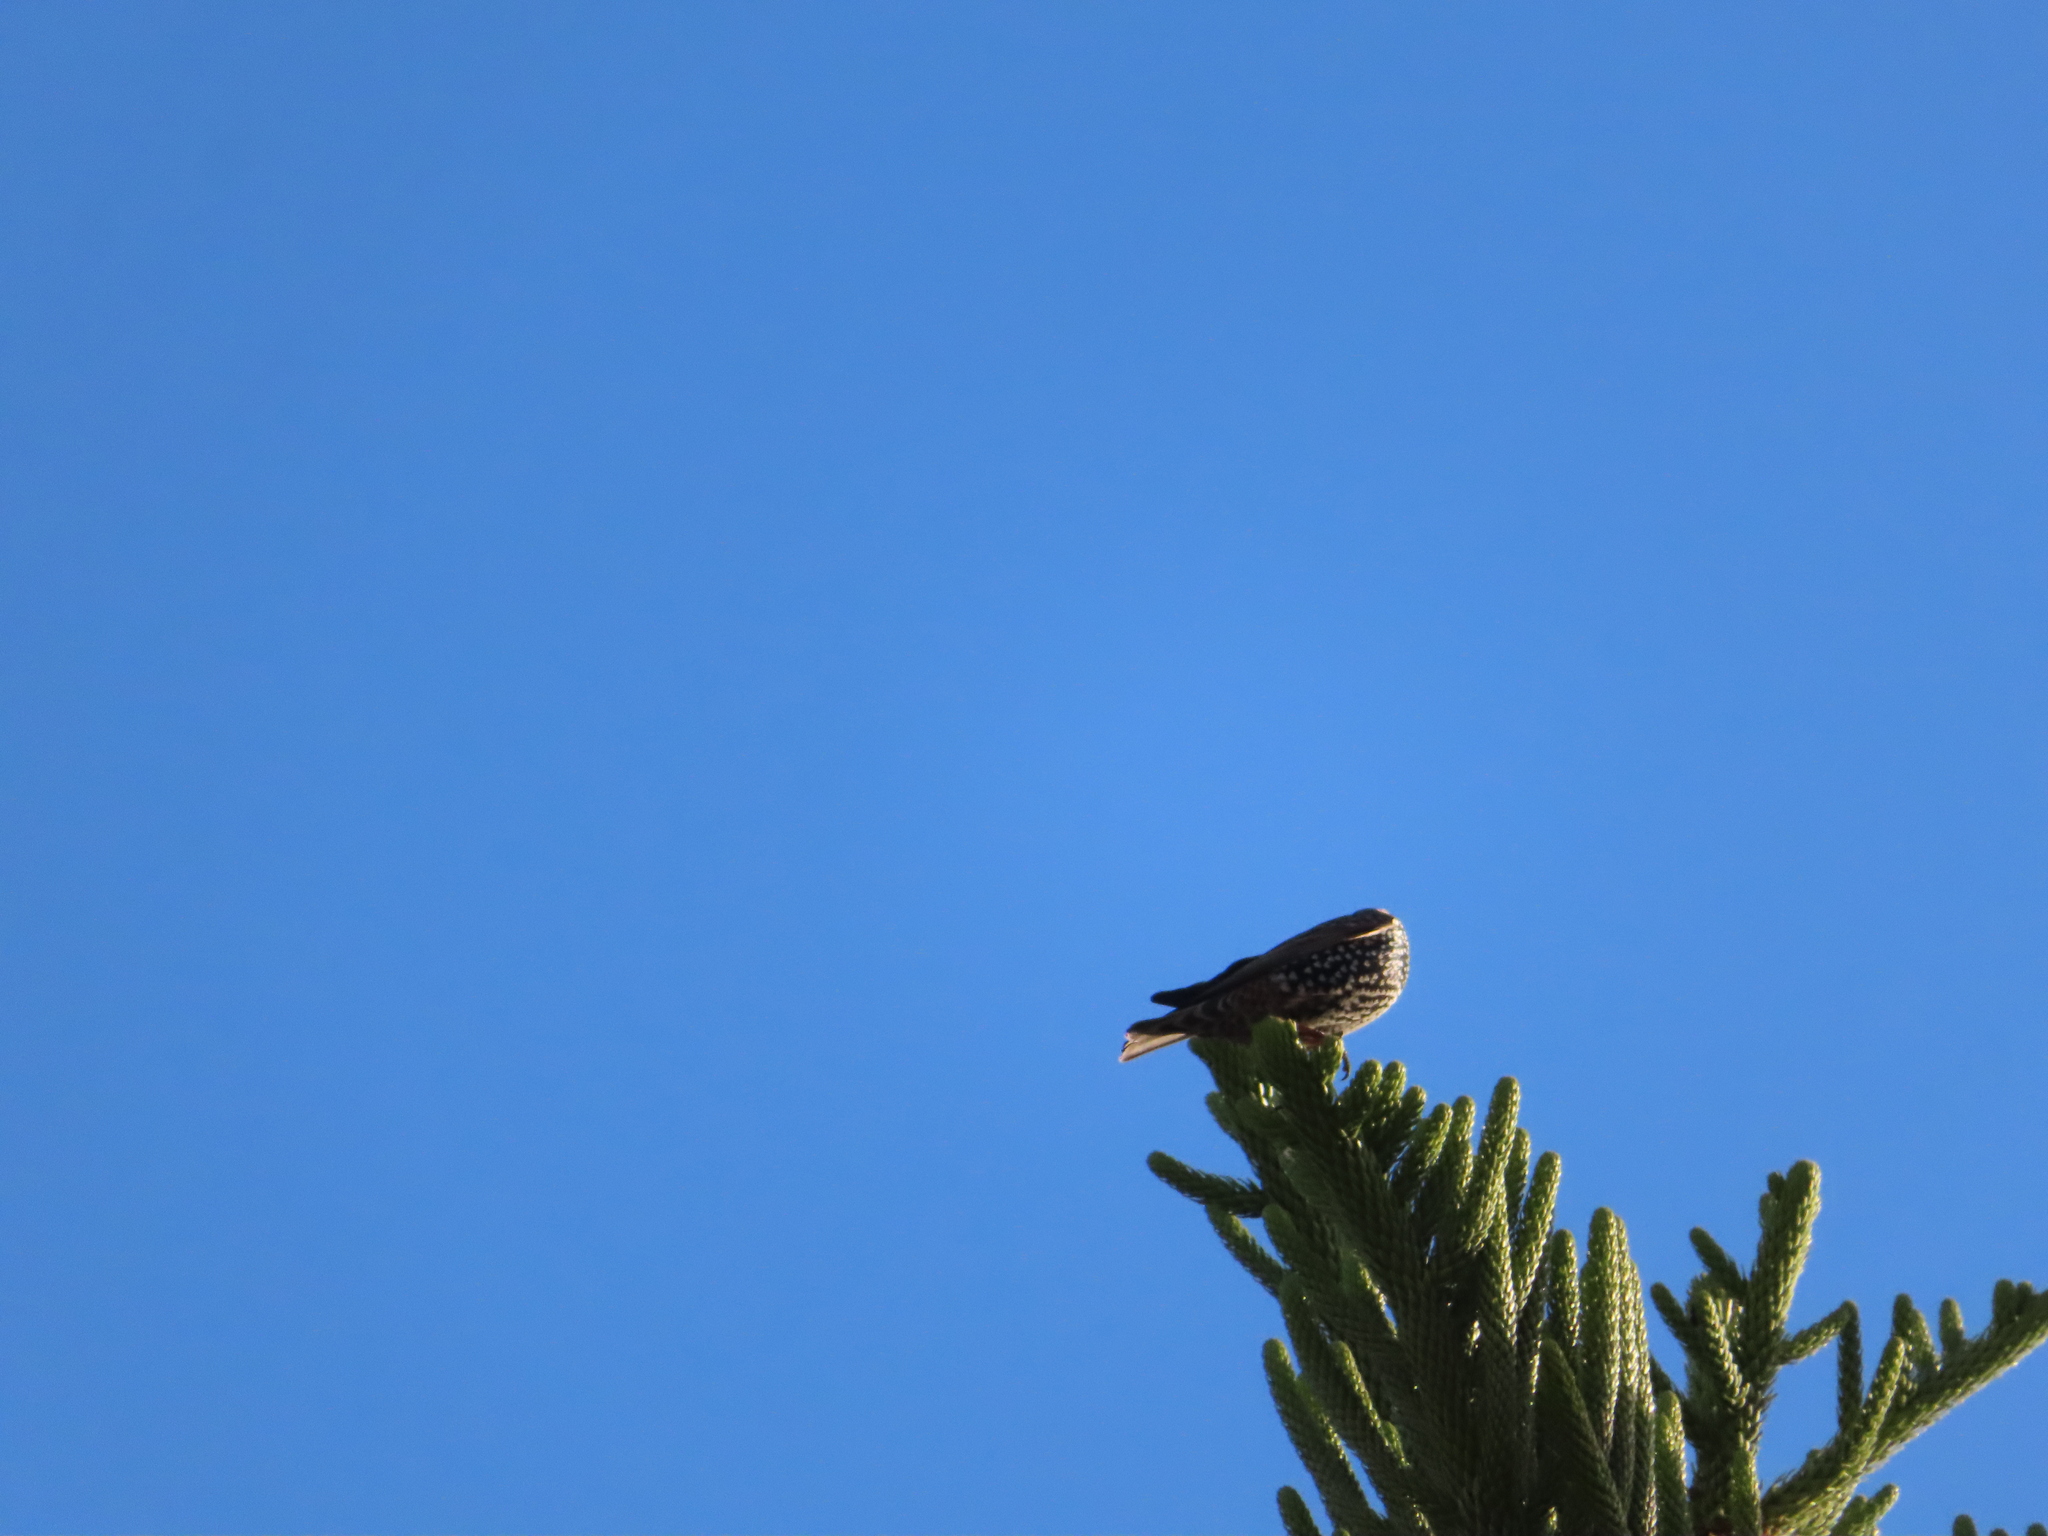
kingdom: Animalia
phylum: Chordata
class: Aves
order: Passeriformes
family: Sturnidae
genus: Sturnus
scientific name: Sturnus vulgaris
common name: Common starling
